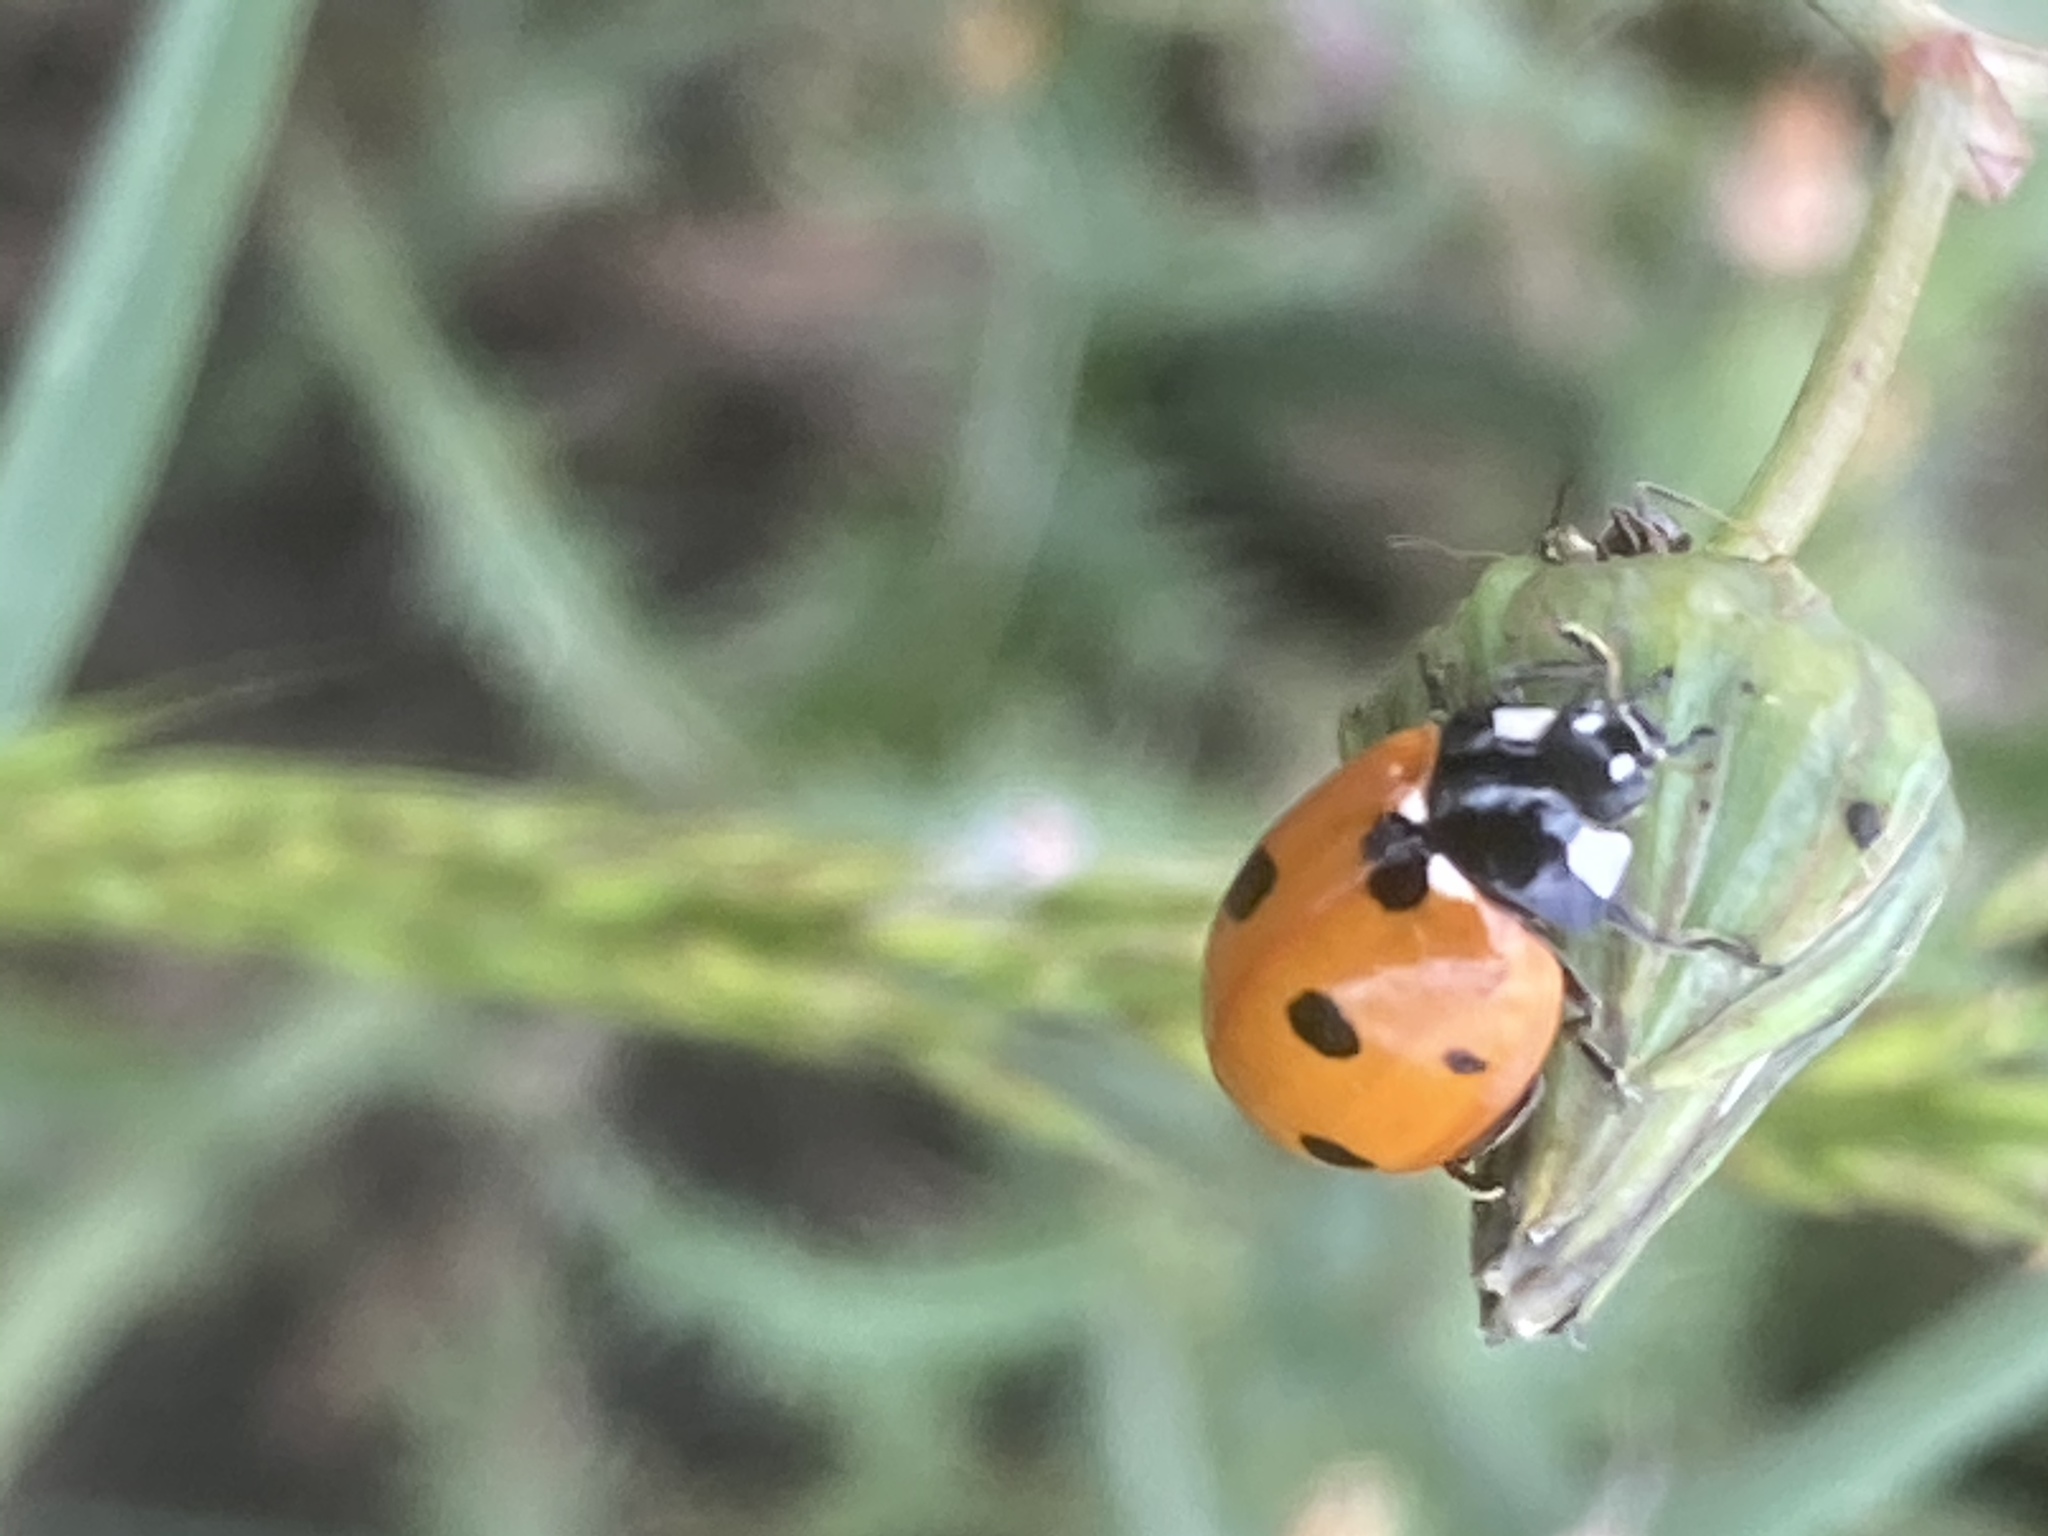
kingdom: Animalia
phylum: Arthropoda
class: Insecta
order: Coleoptera
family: Coccinellidae
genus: Coccinella
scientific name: Coccinella septempunctata
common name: Sevenspotted lady beetle
